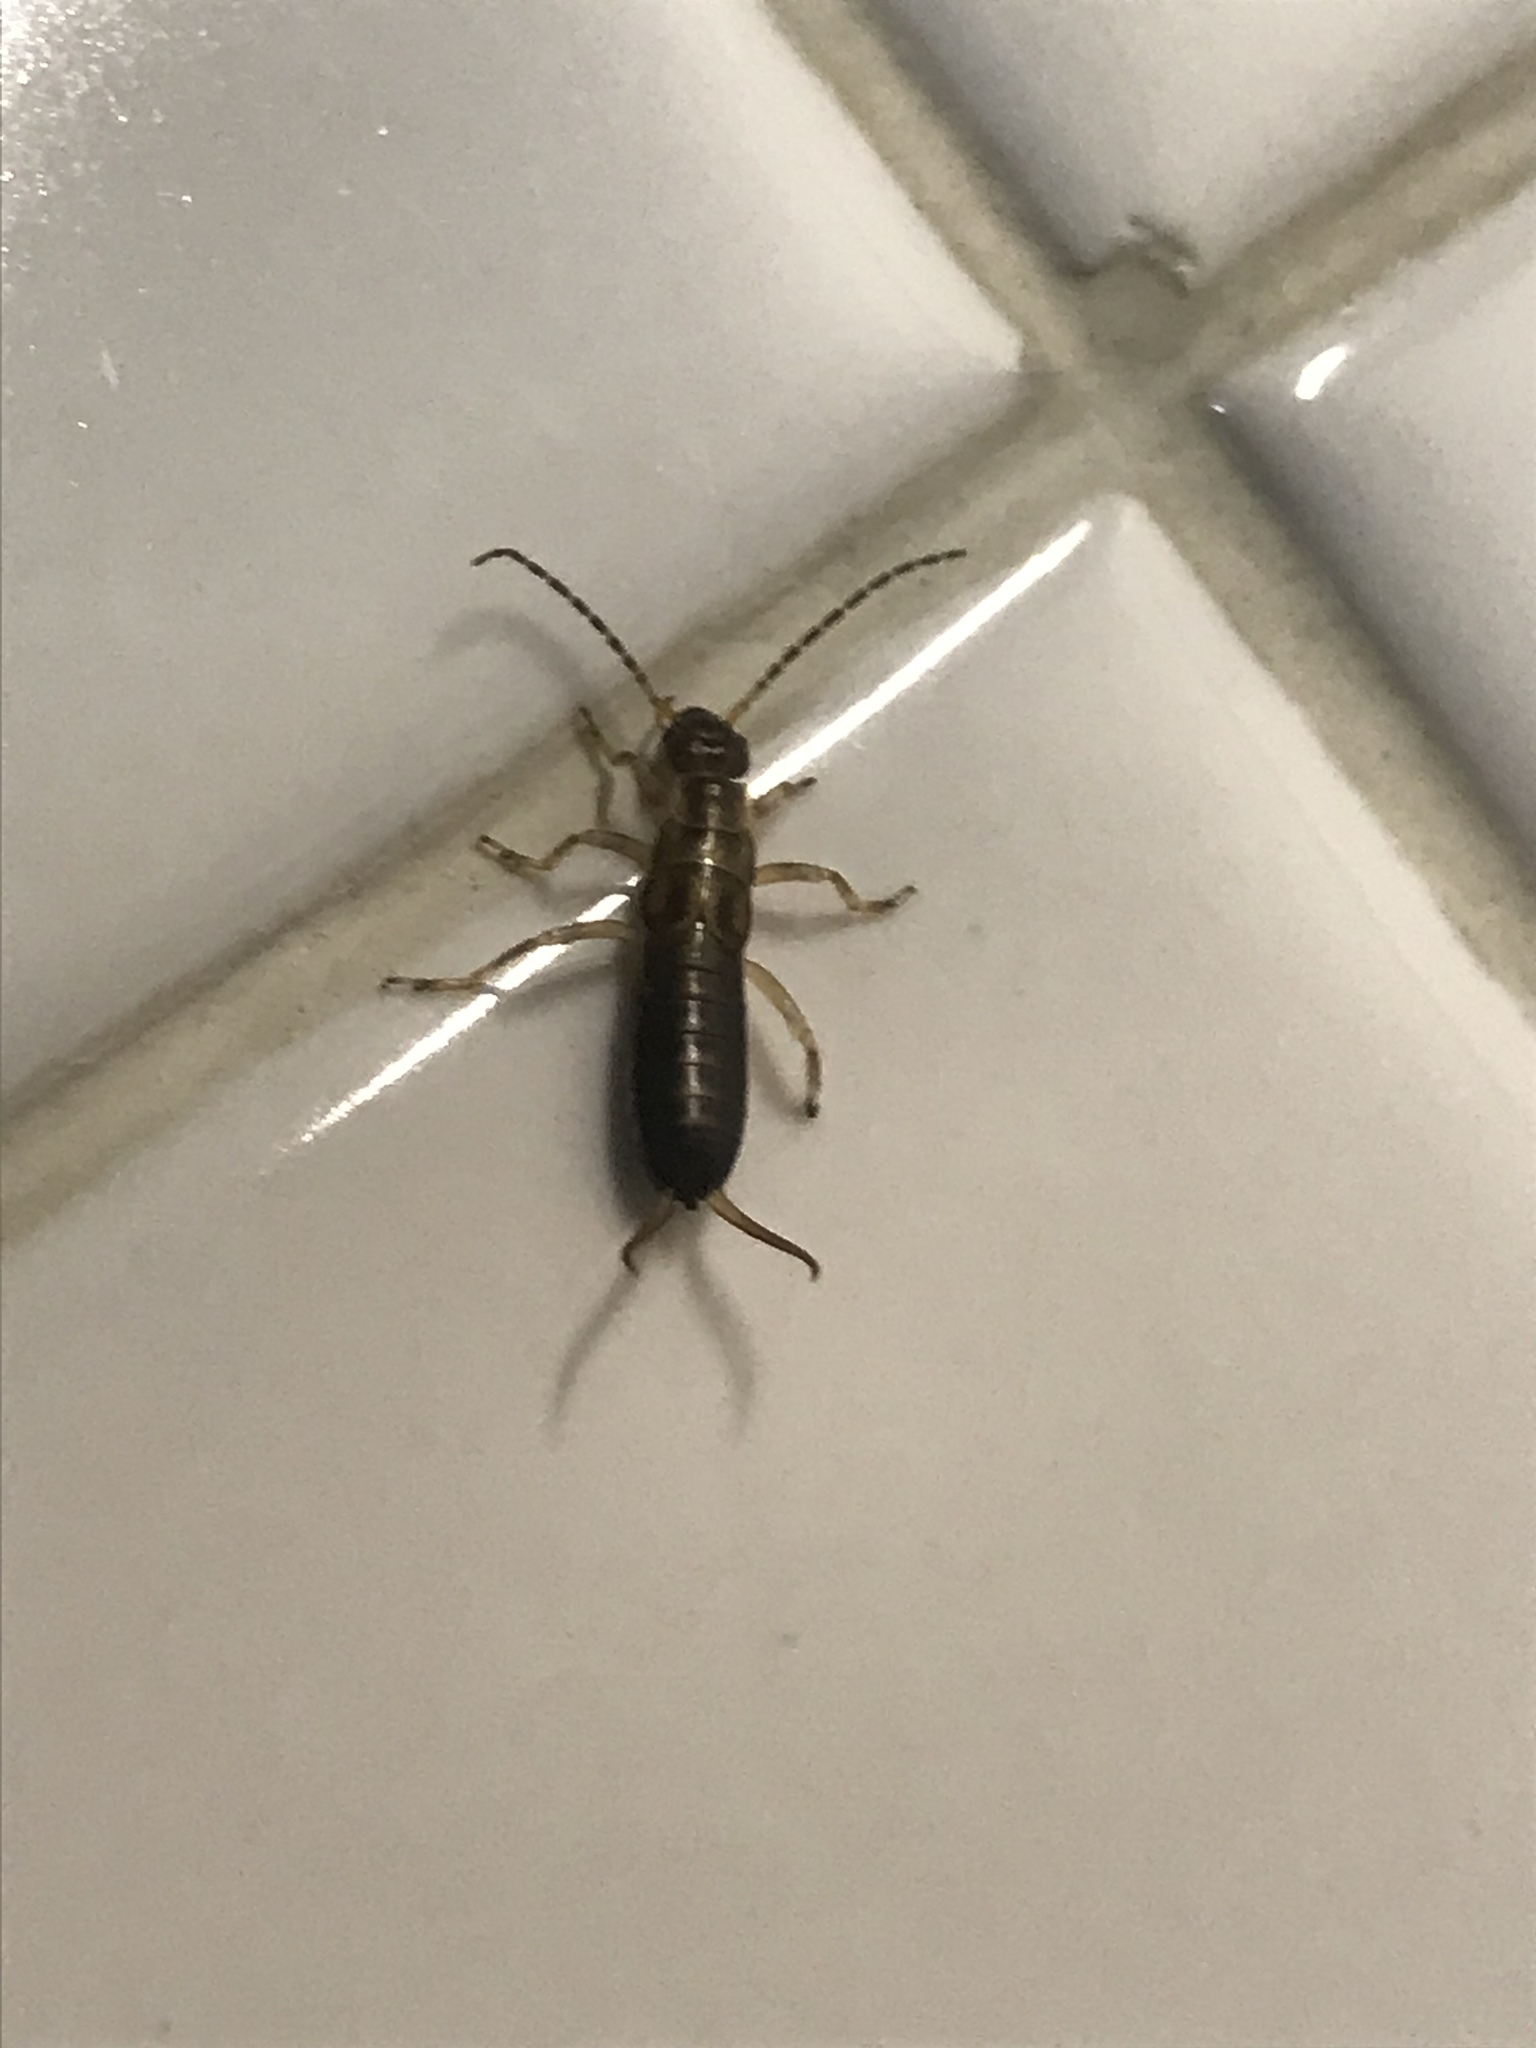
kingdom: Animalia
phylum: Arthropoda
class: Insecta
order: Dermaptera
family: Forficulidae
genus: Forficula
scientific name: Forficula
